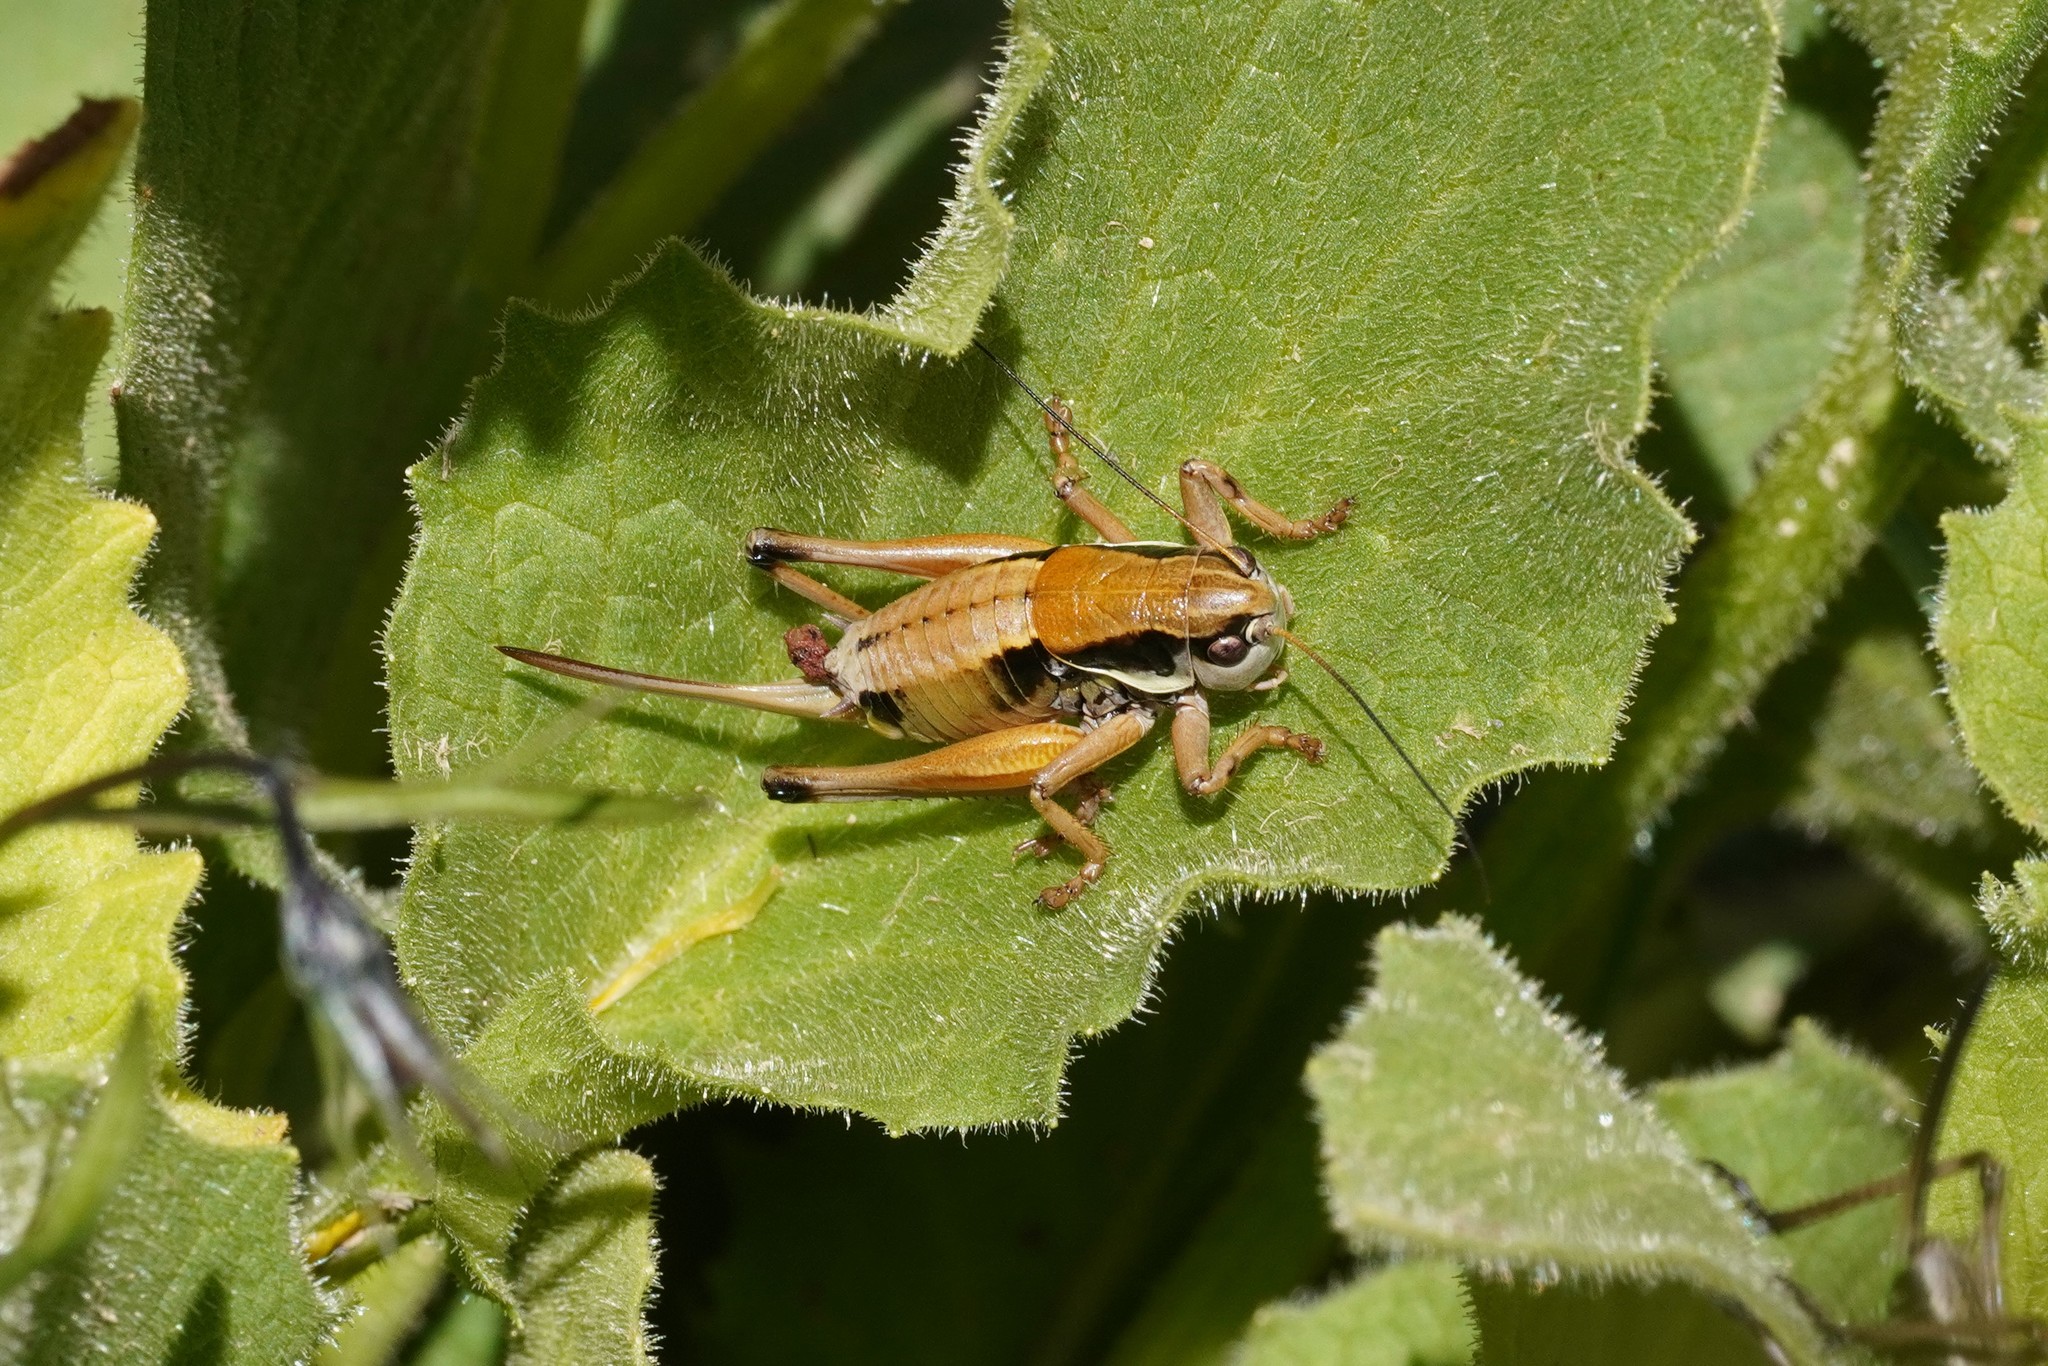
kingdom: Animalia
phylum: Arthropoda
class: Insecta
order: Orthoptera
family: Tettigoniidae
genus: Anonconotus
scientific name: Anonconotus occidentalis
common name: Western alpine bush-cricket
